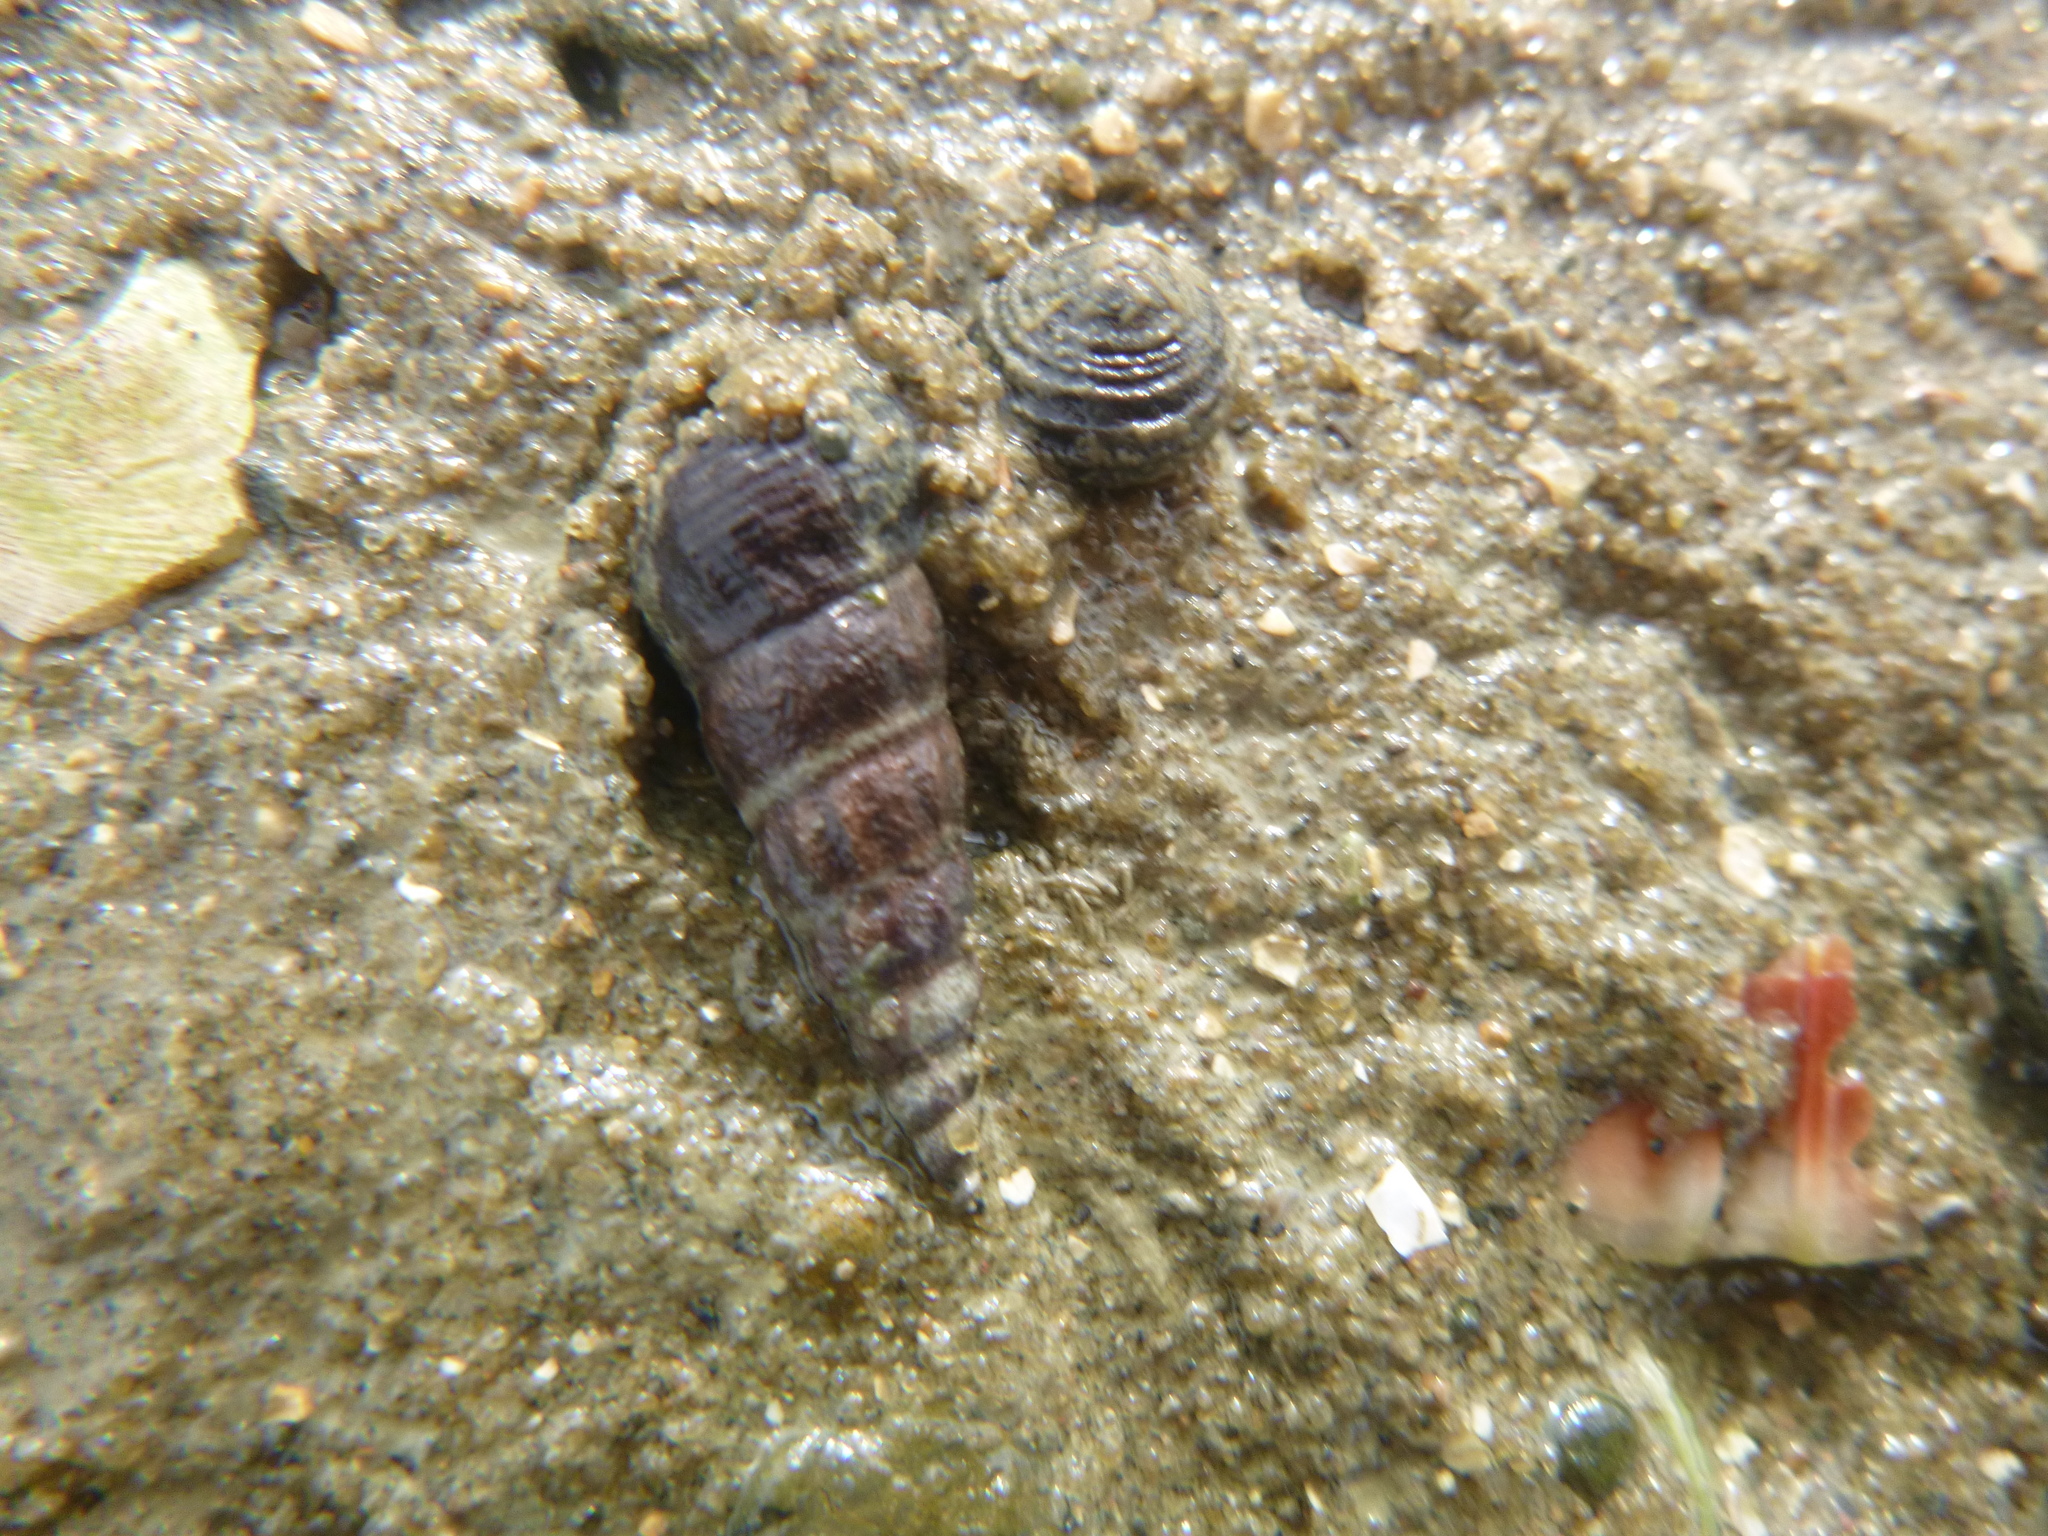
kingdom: Animalia
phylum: Mollusca
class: Gastropoda
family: Batillariidae
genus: Zeacumantus
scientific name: Zeacumantus lutulentus
